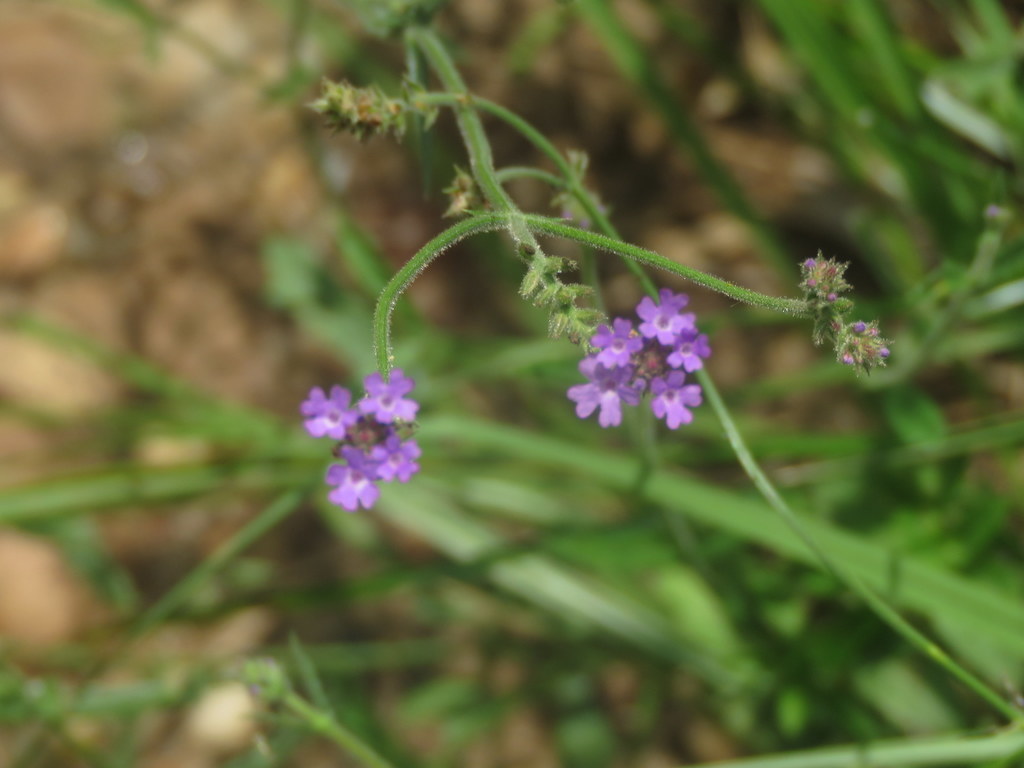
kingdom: Plantae
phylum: Tracheophyta
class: Magnoliopsida
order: Lamiales
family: Verbenaceae
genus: Verbena
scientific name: Verbena intermedia
